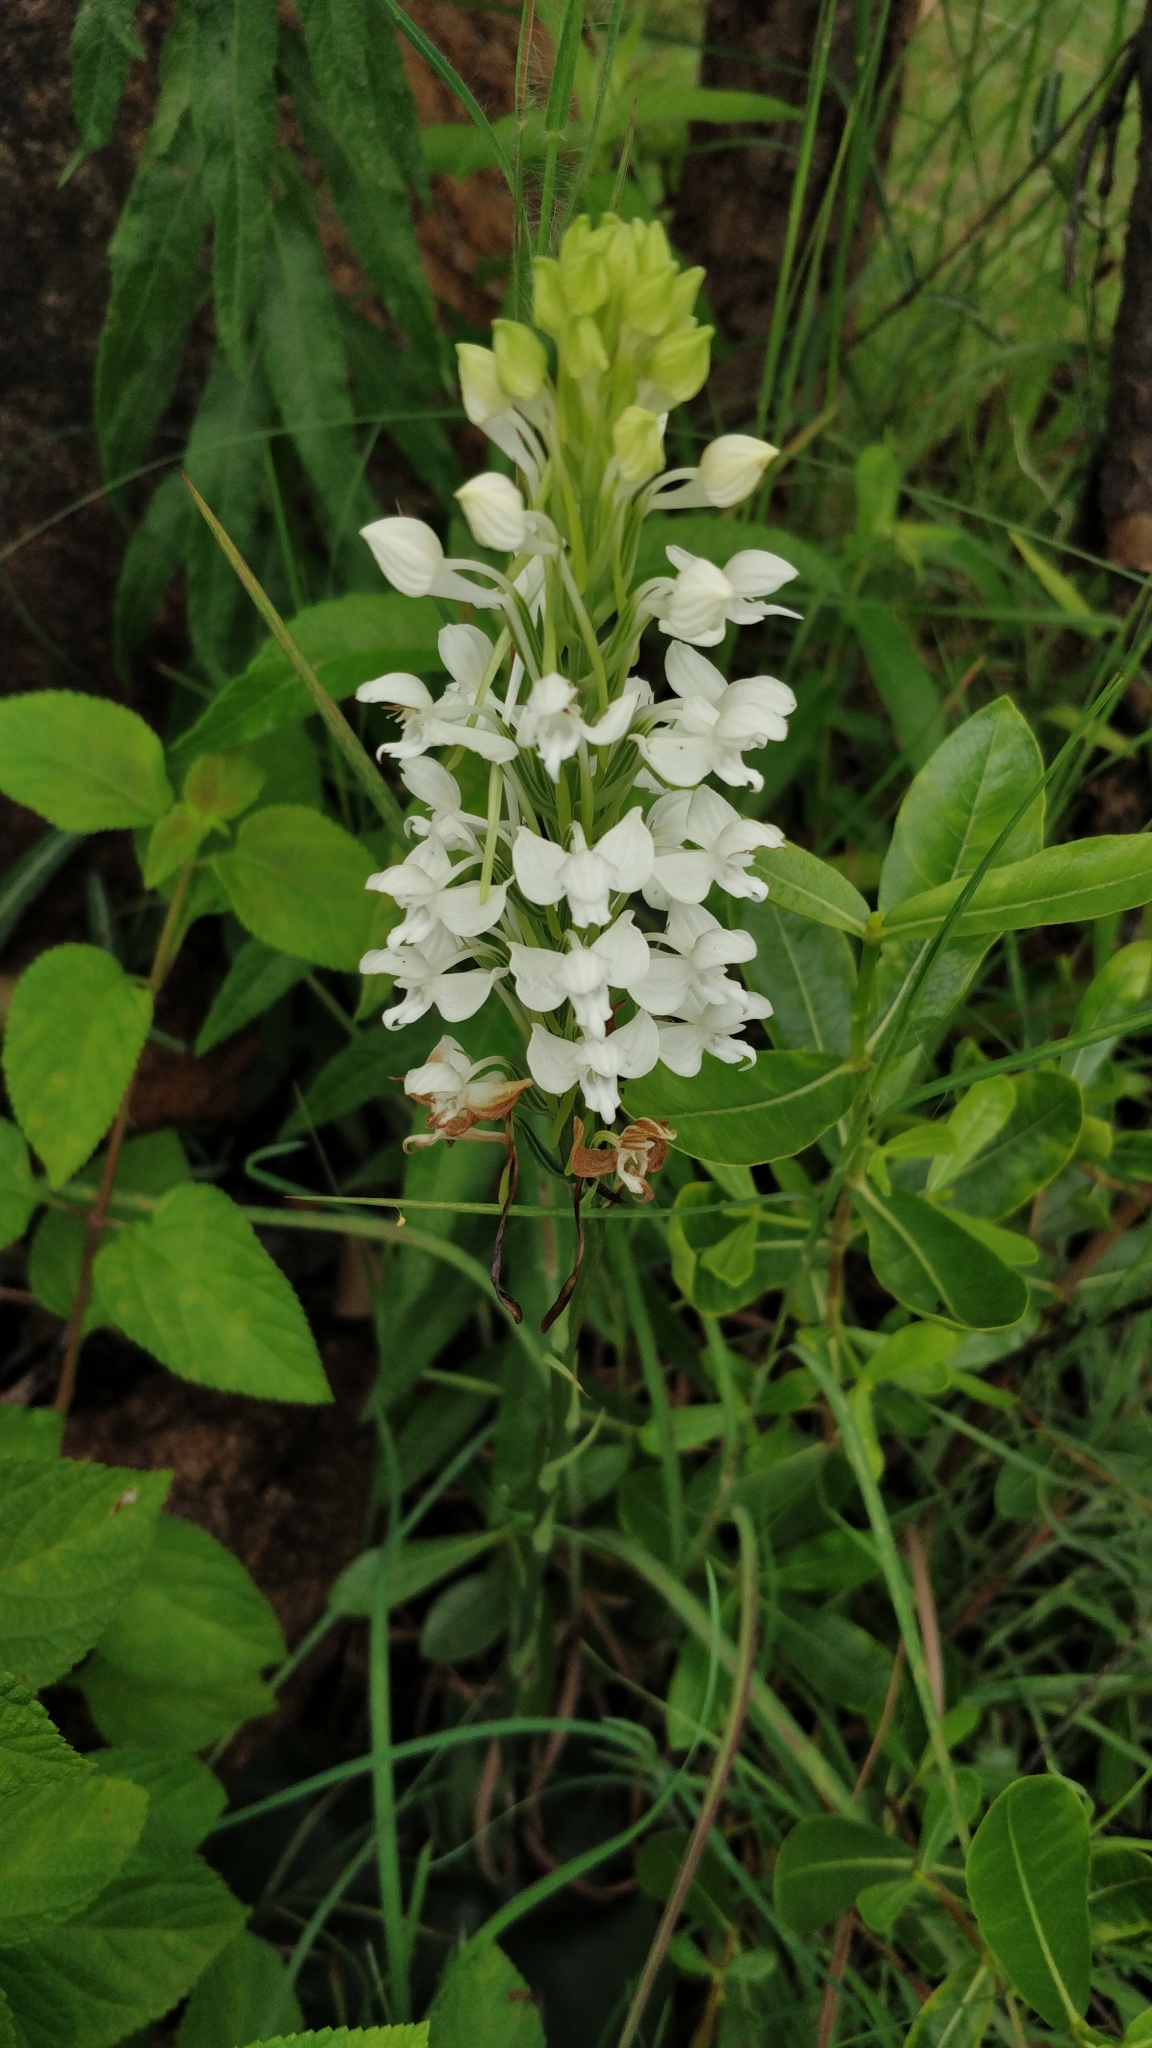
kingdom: Plantae
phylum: Tracheophyta
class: Liliopsida
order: Asparagales
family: Orchidaceae
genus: Habenaria
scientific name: Habenaria roxburghii
